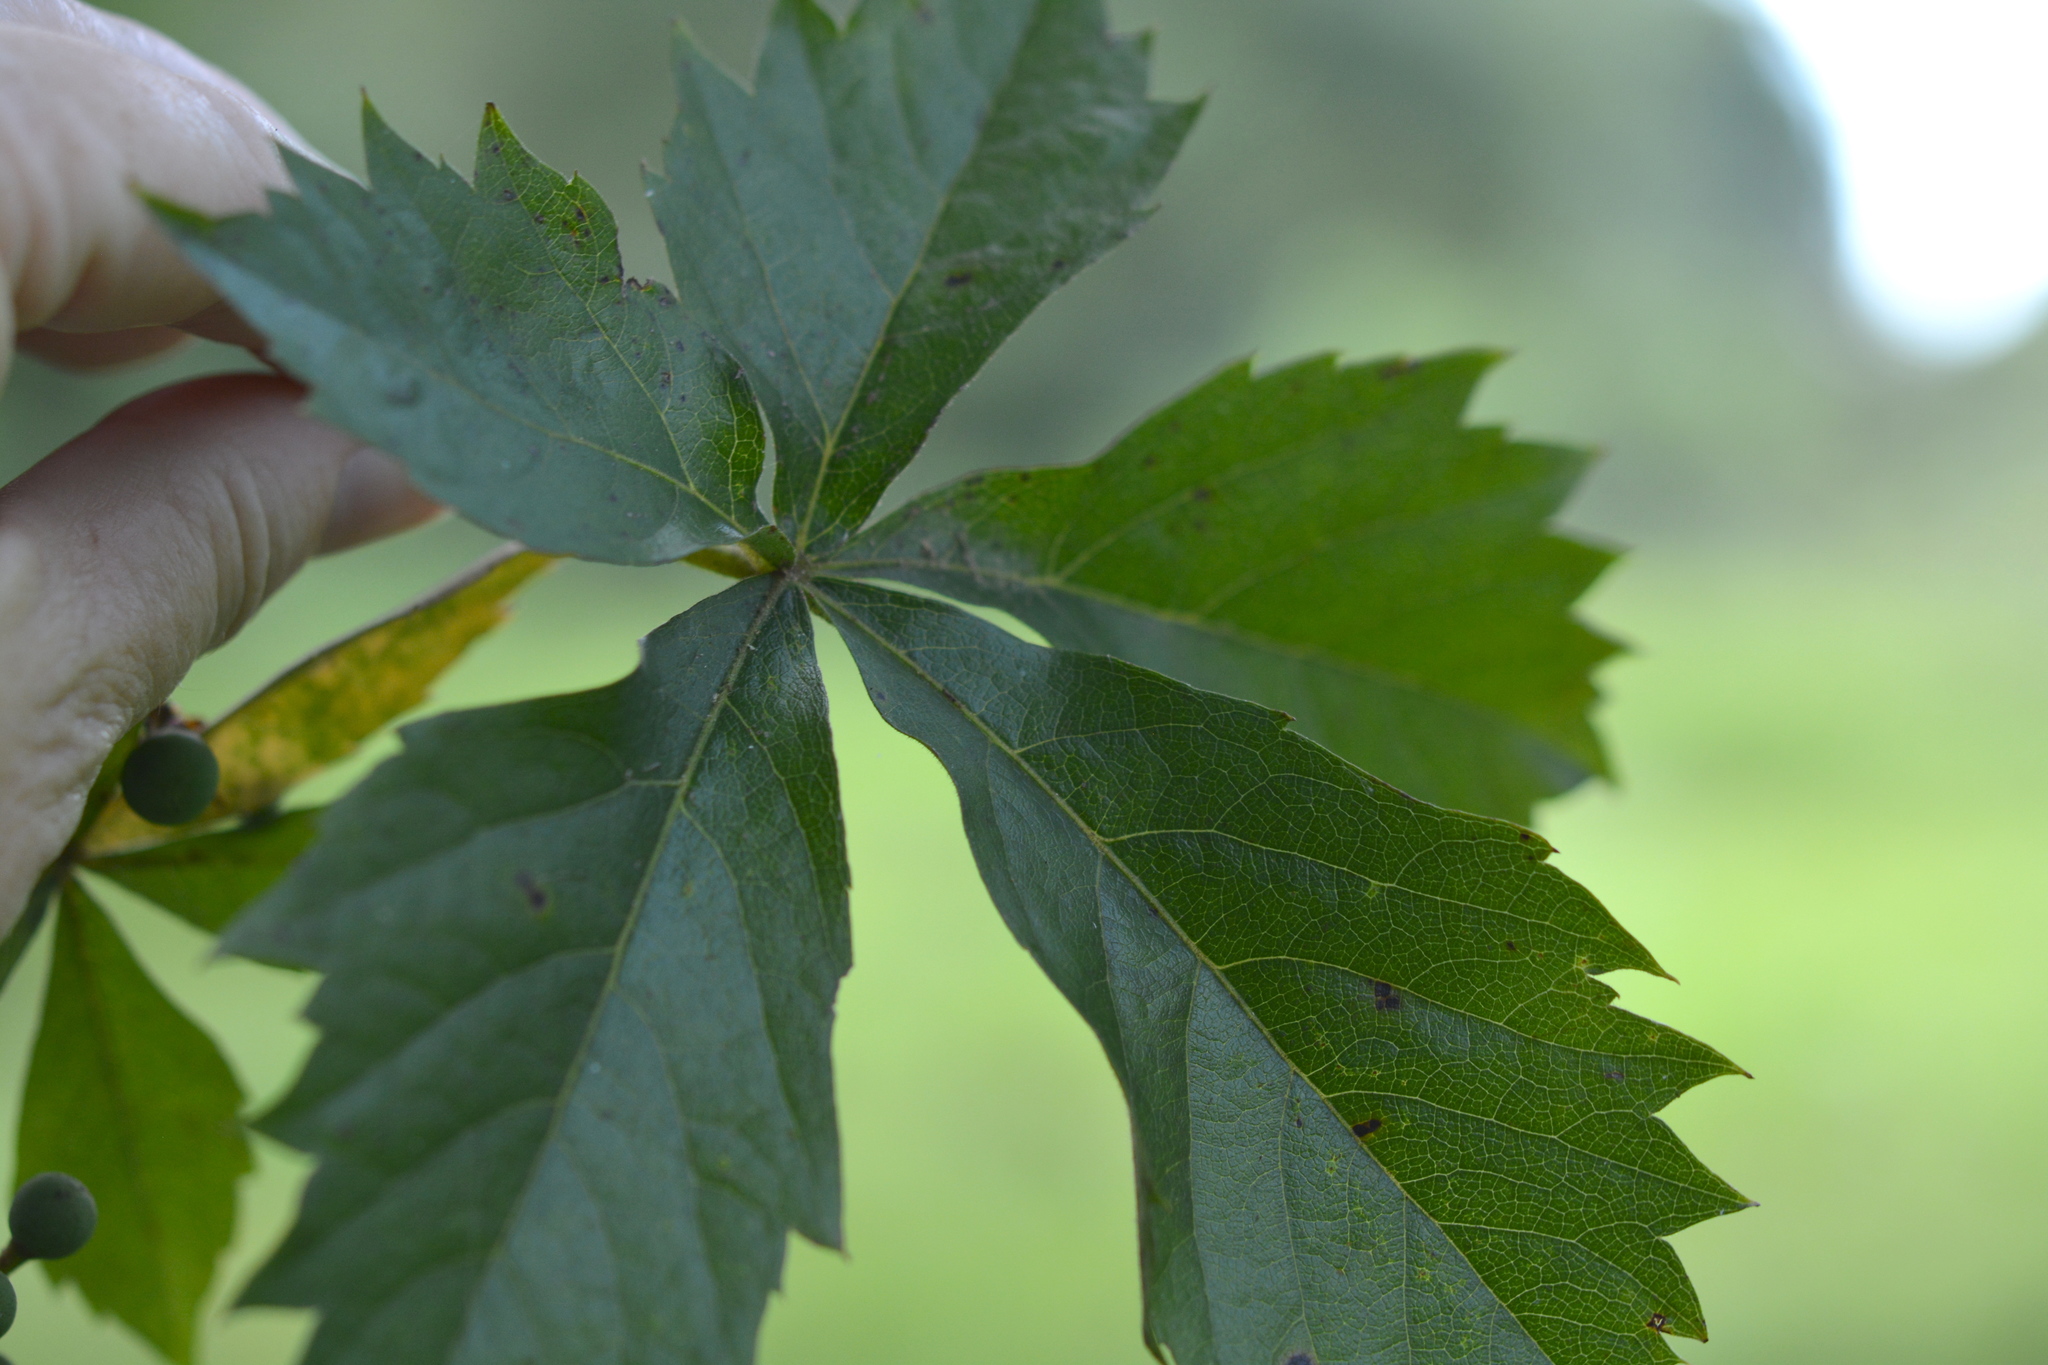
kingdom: Plantae
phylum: Tracheophyta
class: Magnoliopsida
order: Vitales
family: Vitaceae
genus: Parthenocissus
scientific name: Parthenocissus quinquefolia
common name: Virginia-creeper
